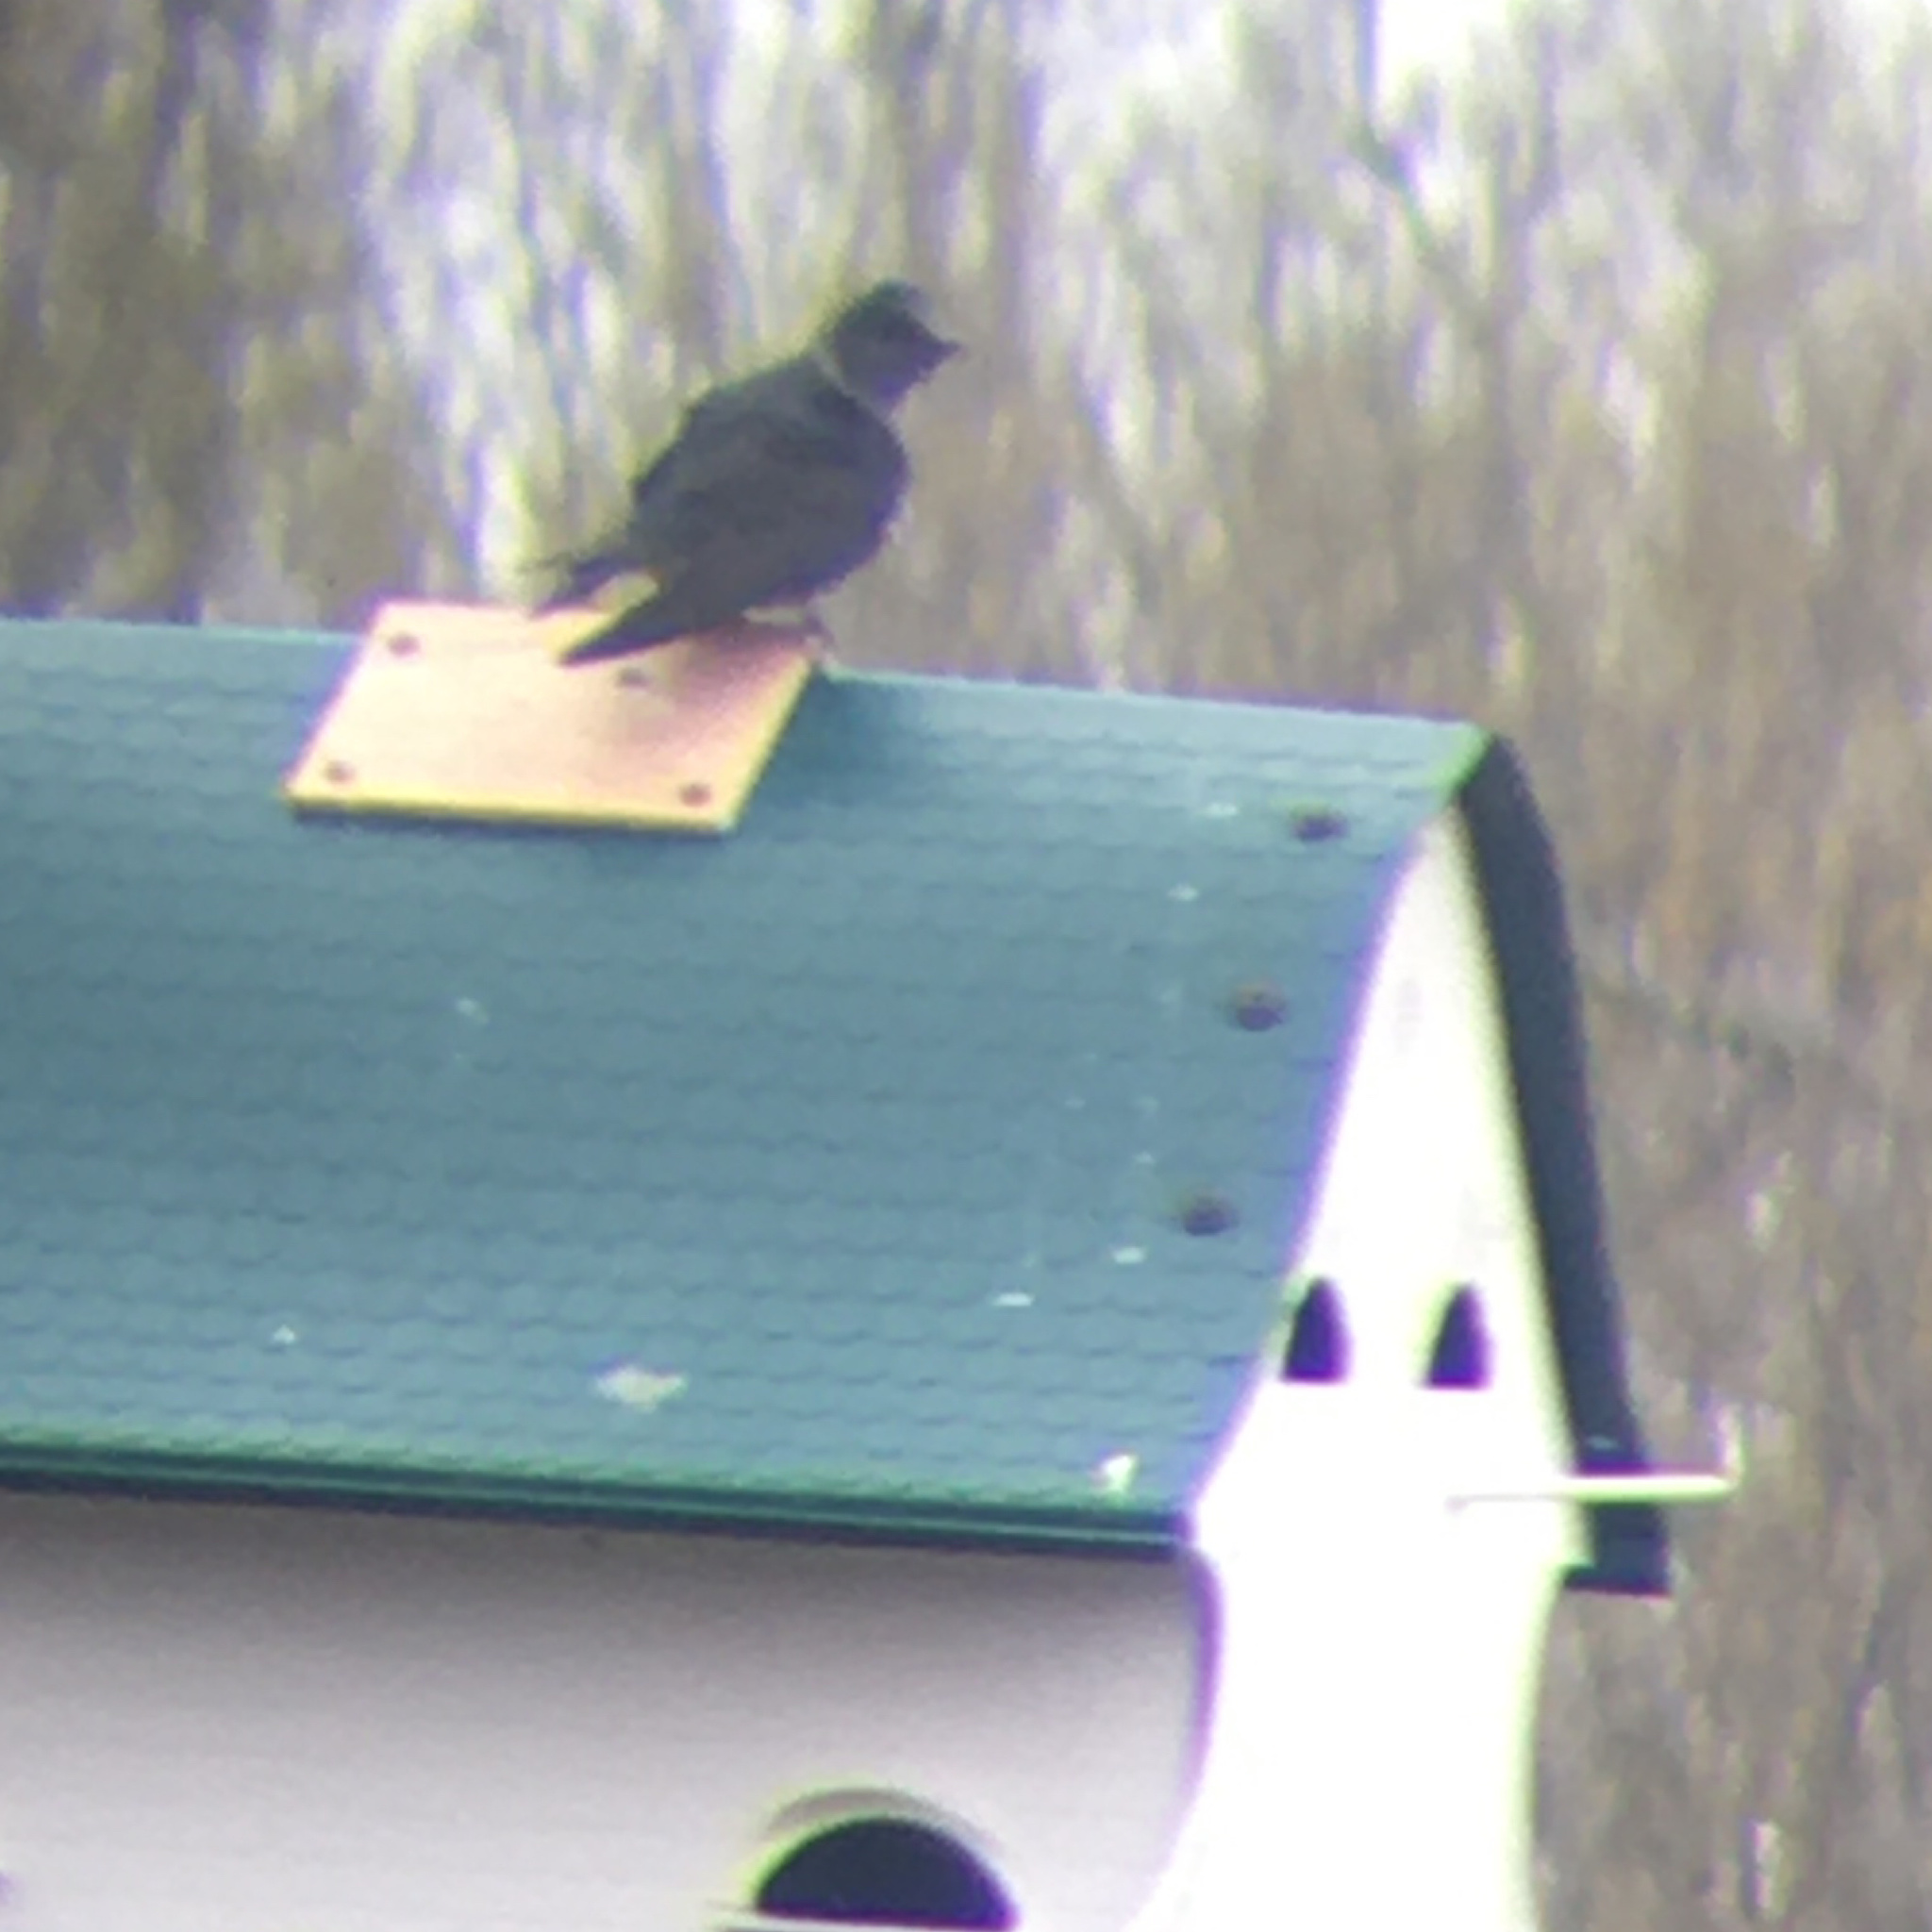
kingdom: Animalia
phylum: Chordata
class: Aves
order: Passeriformes
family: Hirundinidae
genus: Progne
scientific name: Progne subis
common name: Purple martin
